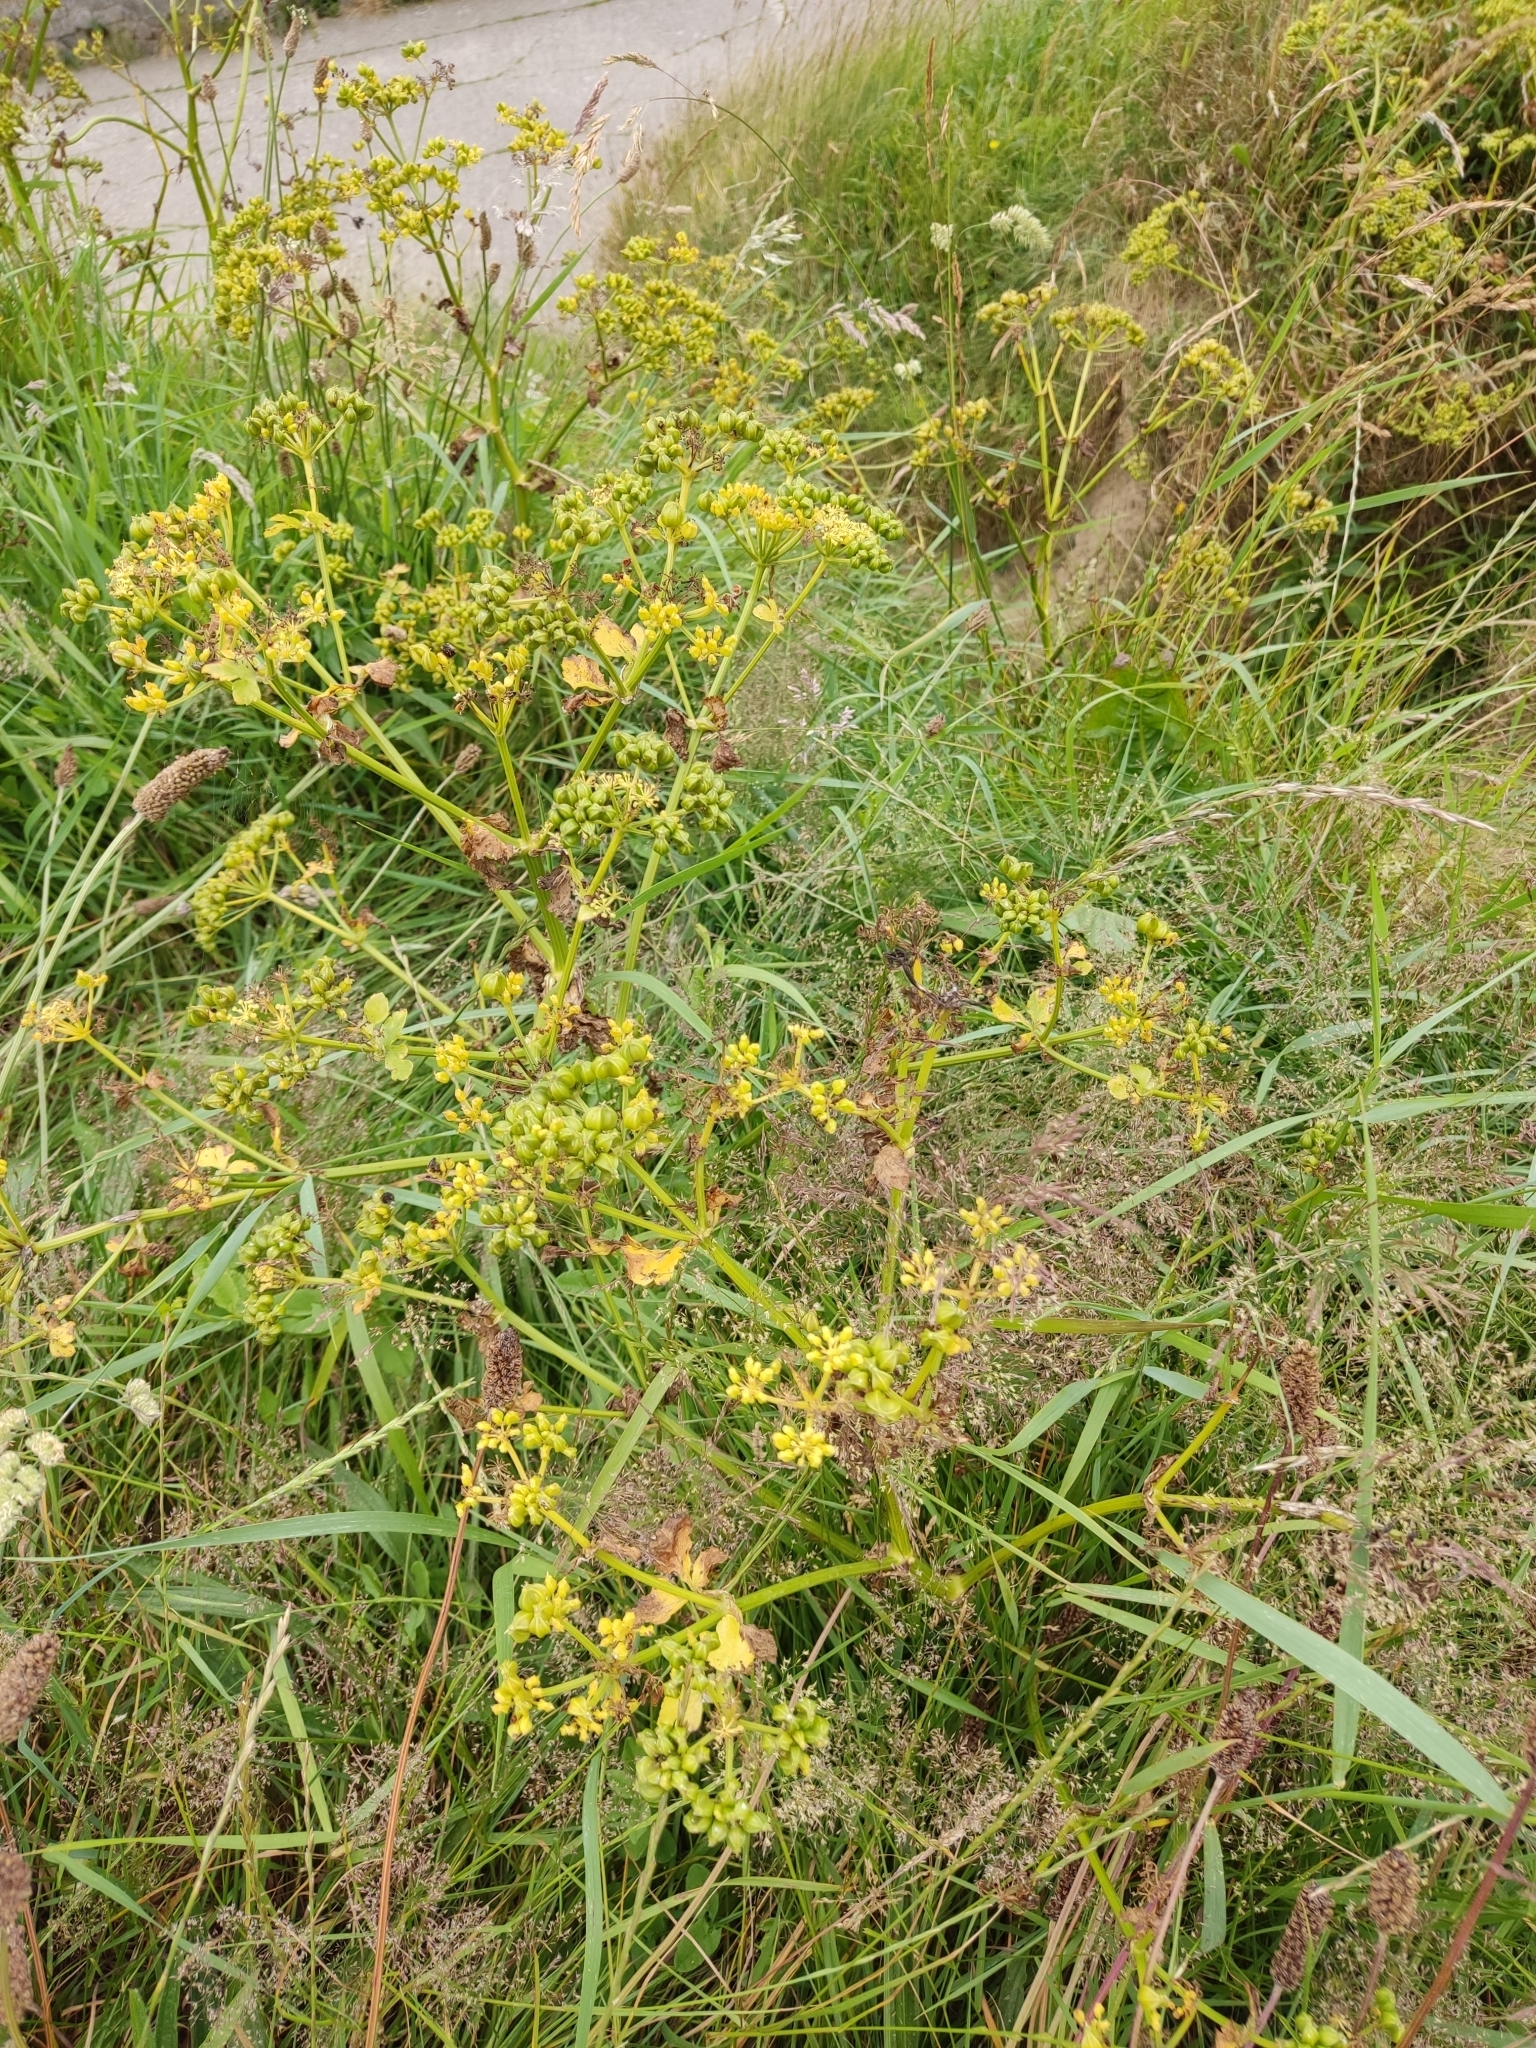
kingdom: Plantae
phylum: Tracheophyta
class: Magnoliopsida
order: Apiales
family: Apiaceae
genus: Smyrnium
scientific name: Smyrnium olusatrum
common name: Alexanders
